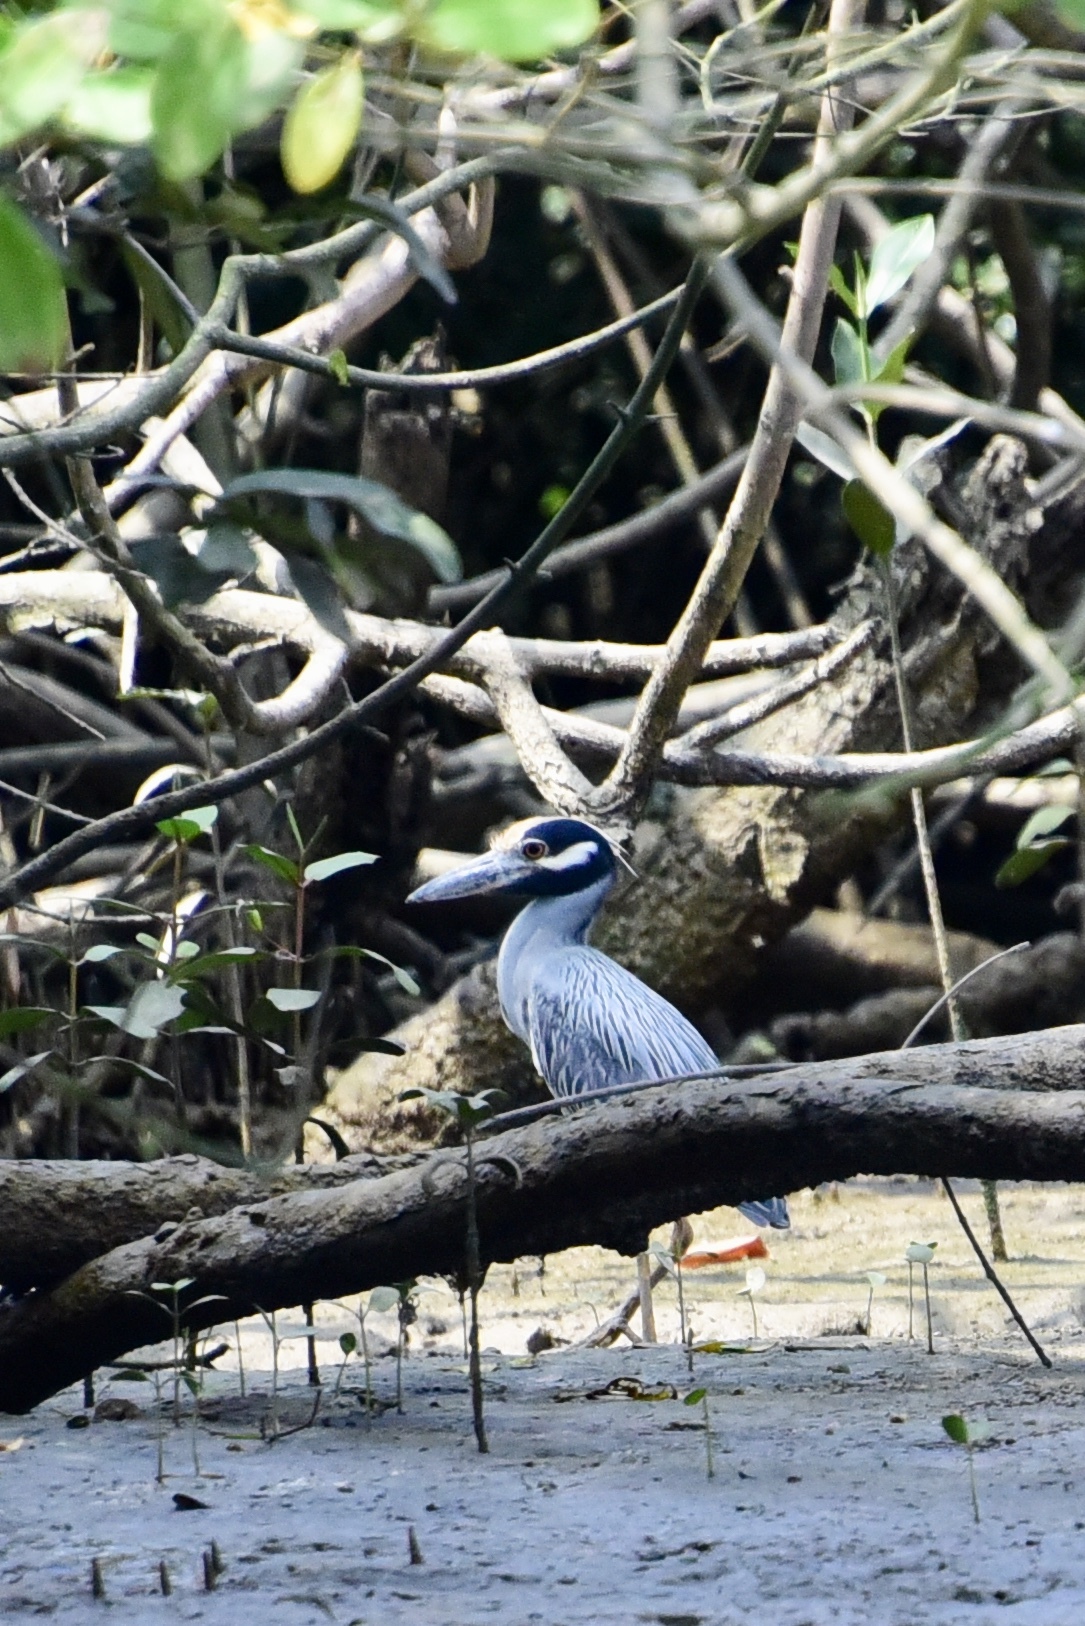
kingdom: Animalia
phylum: Chordata
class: Aves
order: Pelecaniformes
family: Ardeidae
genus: Nyctanassa
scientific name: Nyctanassa violacea
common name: Yellow-crowned night heron
